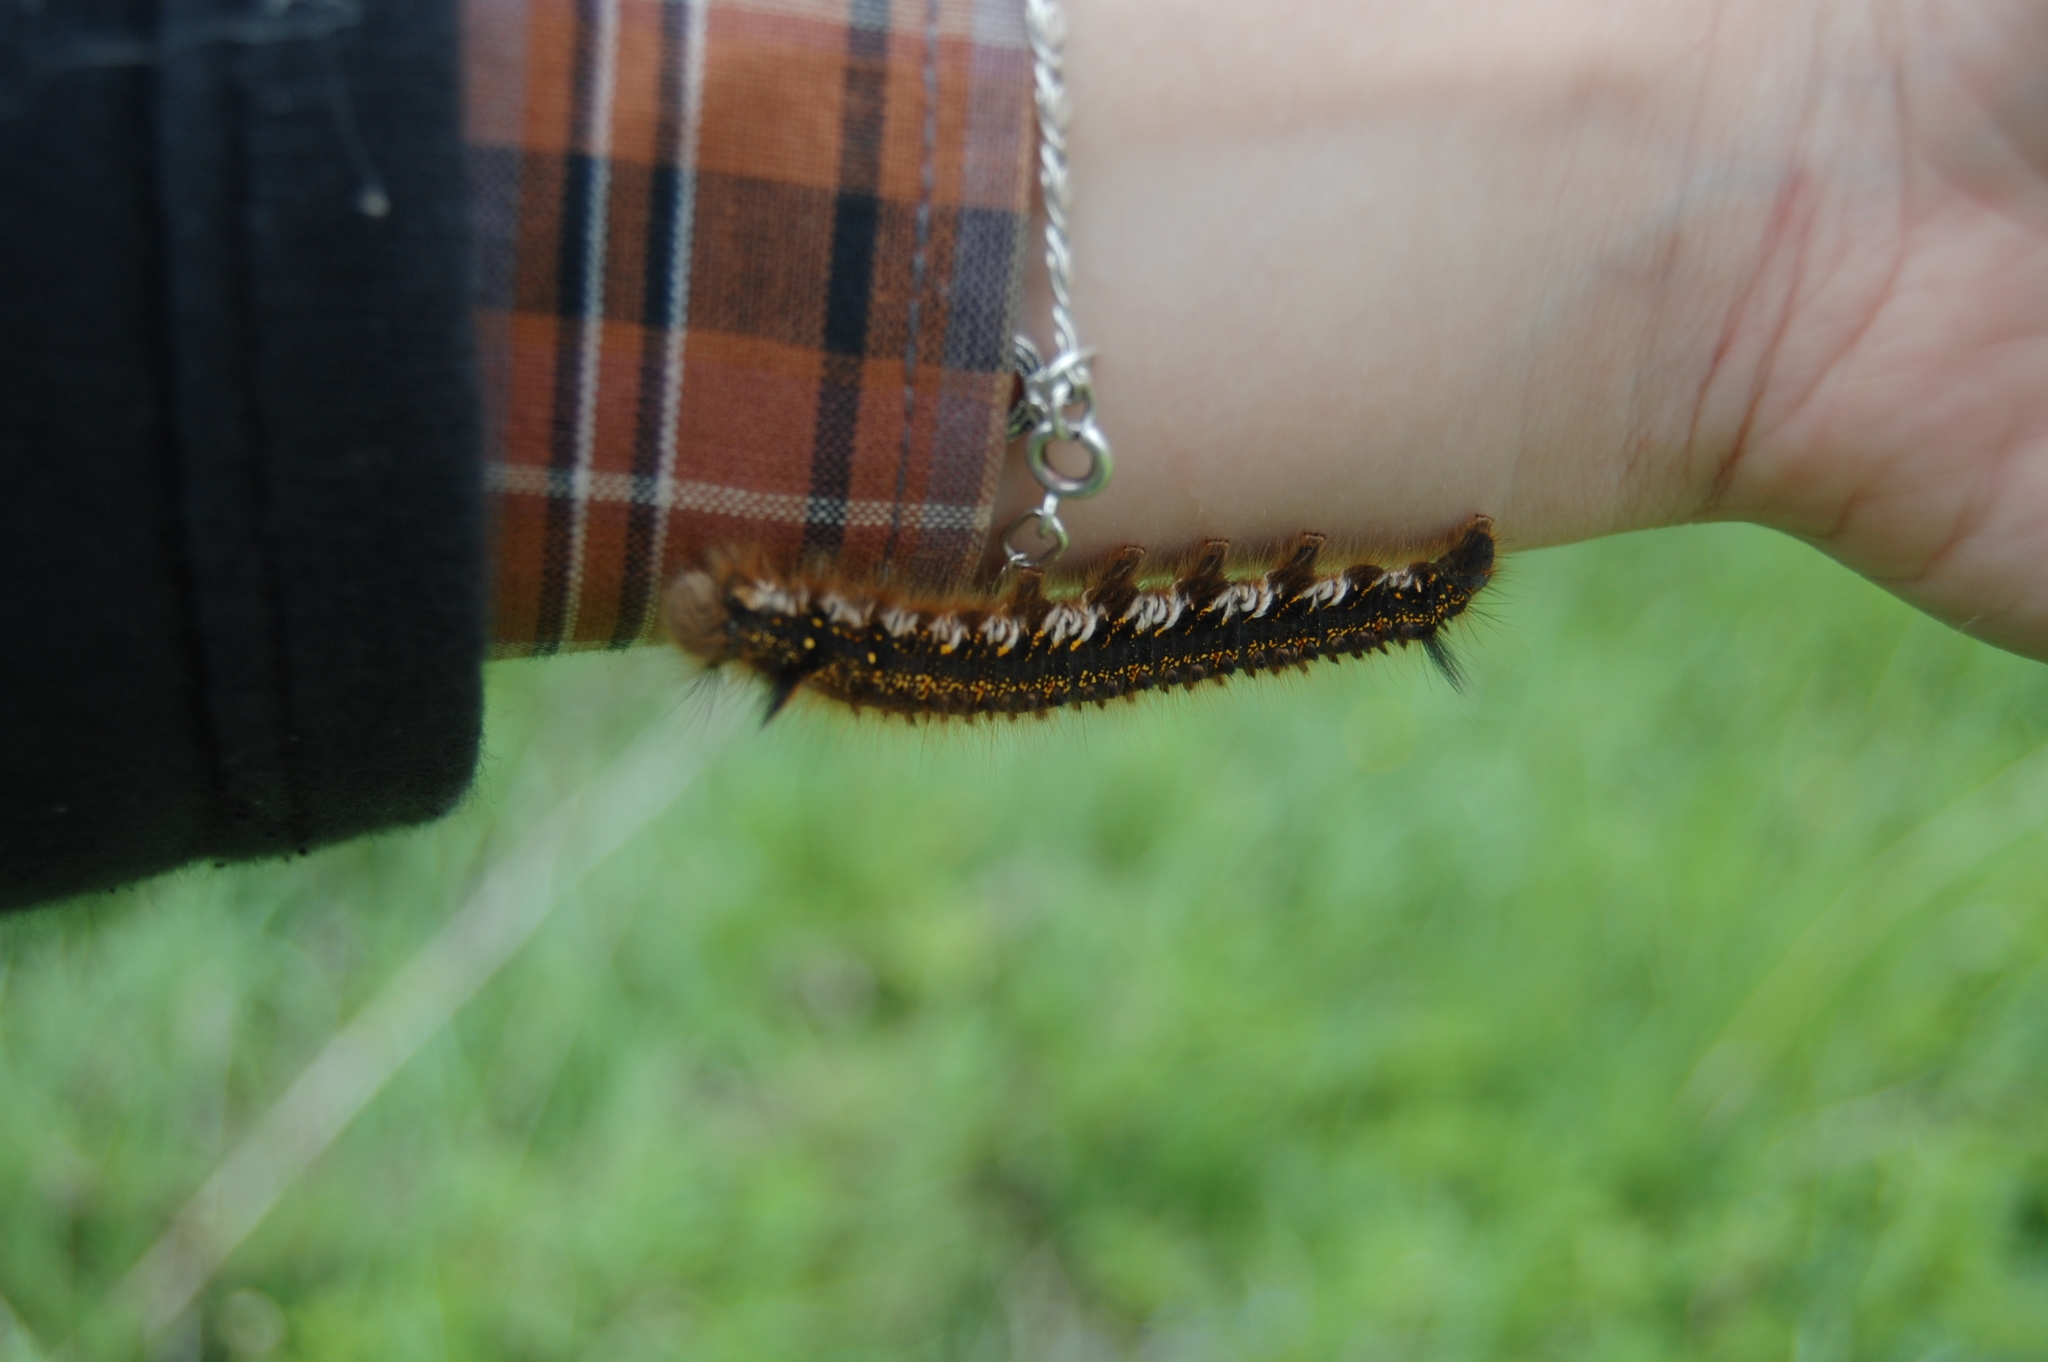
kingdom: Animalia
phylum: Arthropoda
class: Insecta
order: Lepidoptera
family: Lasiocampidae
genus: Euthrix
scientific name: Euthrix potatoria
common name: Drinker
